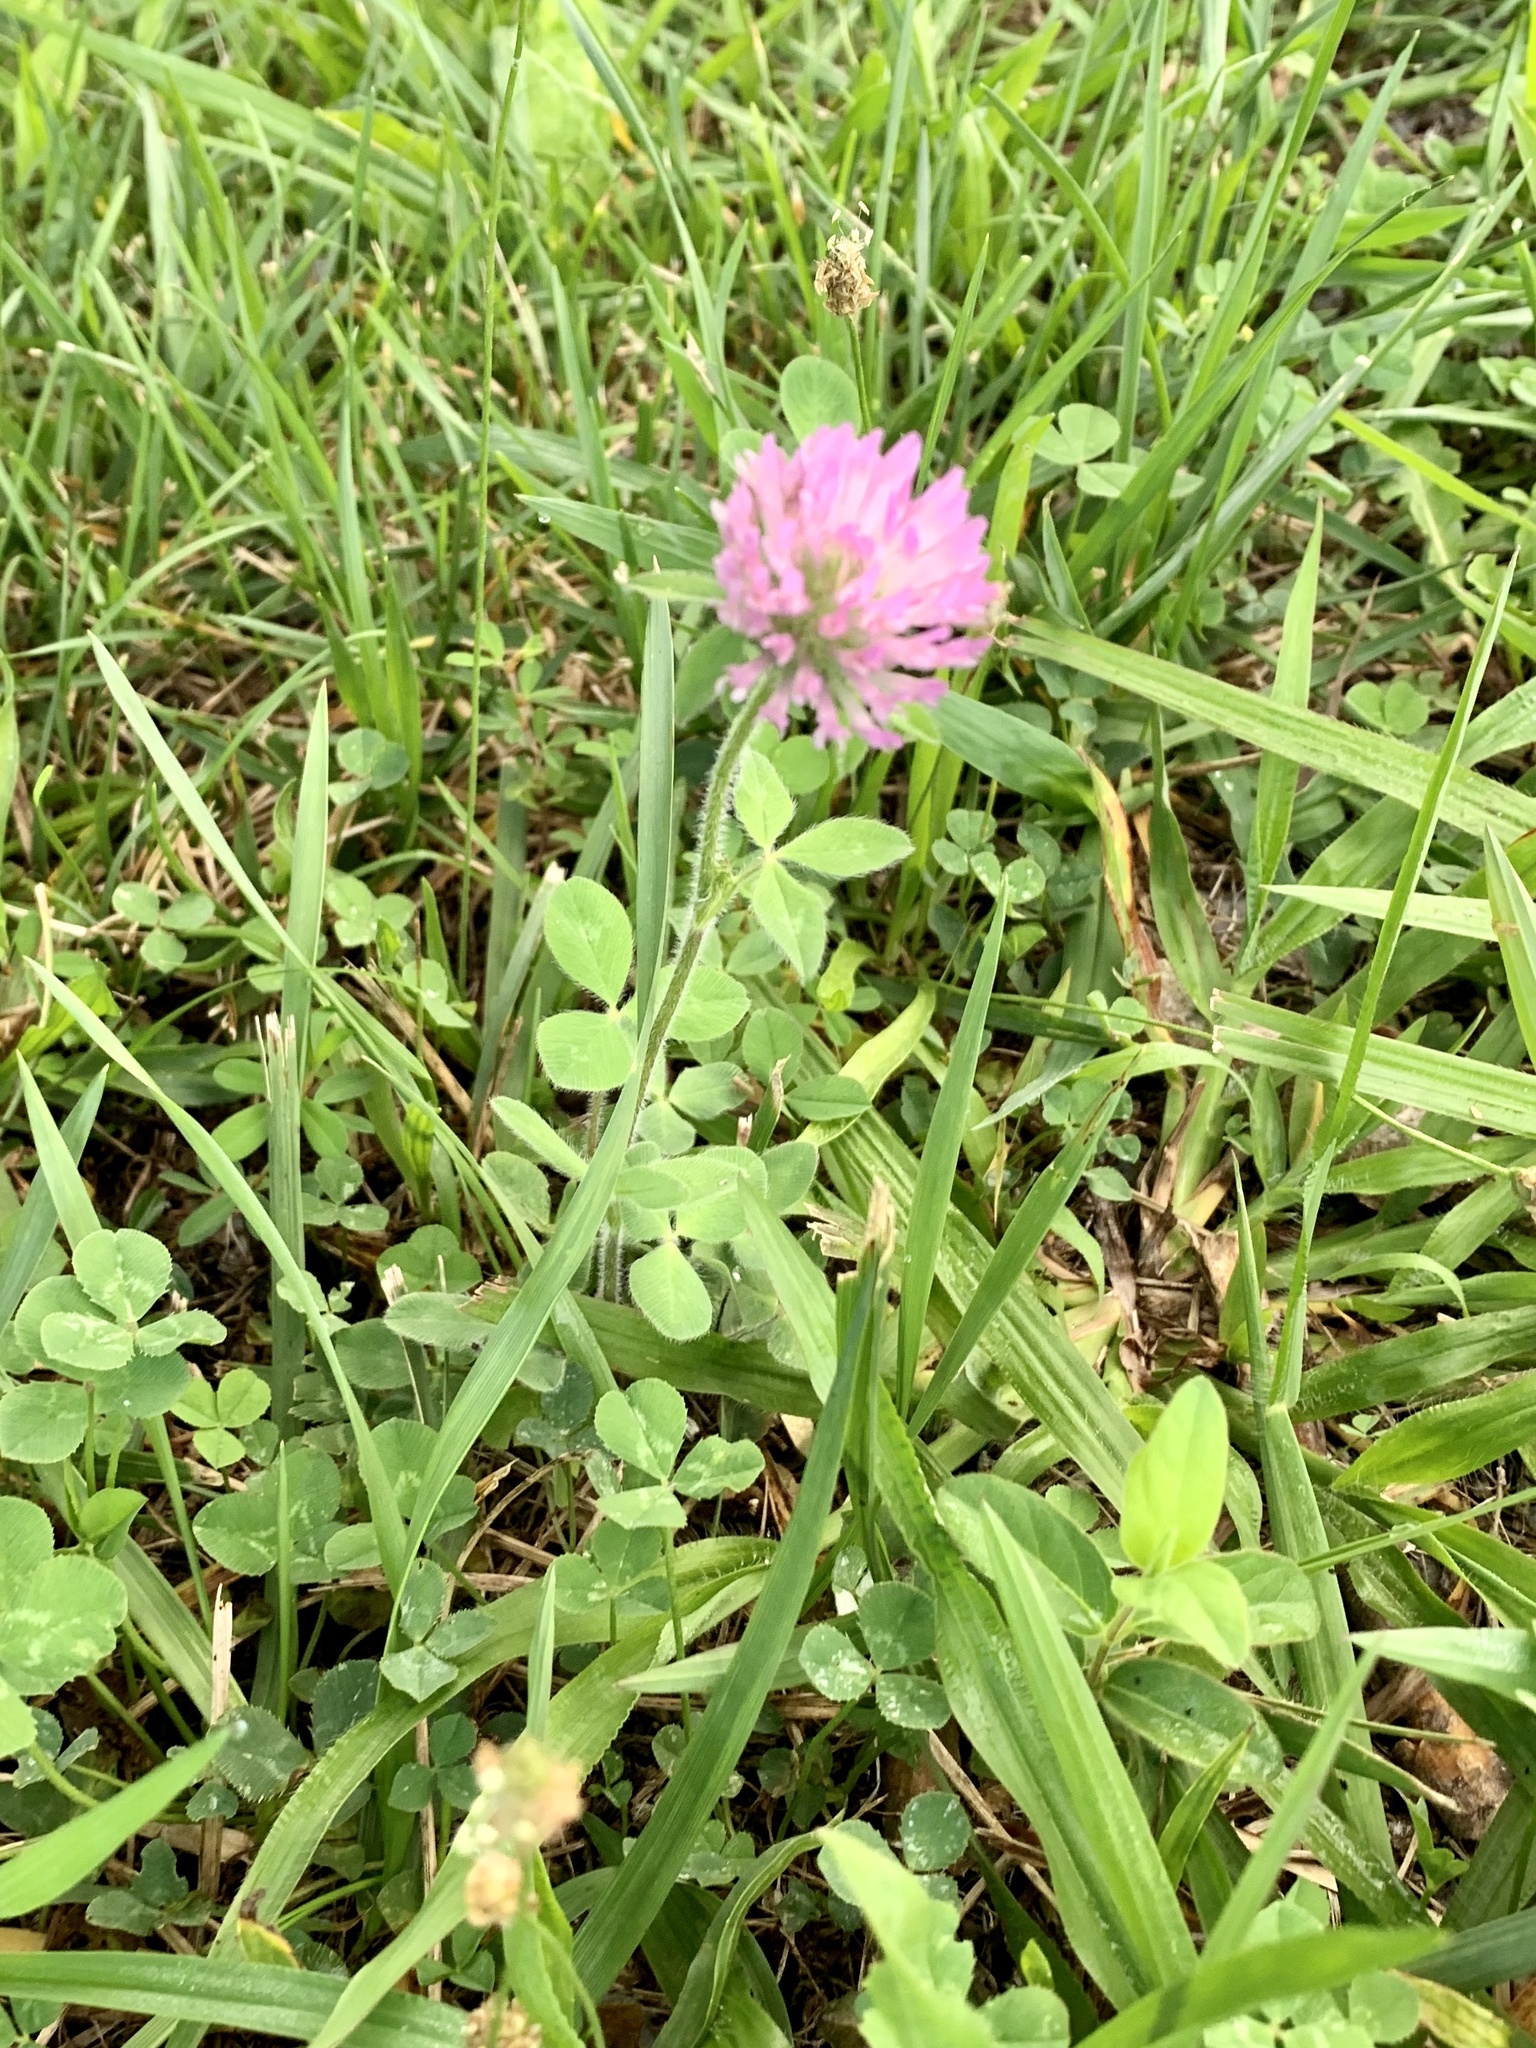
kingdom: Plantae
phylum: Tracheophyta
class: Magnoliopsida
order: Fabales
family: Fabaceae
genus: Trifolium
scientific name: Trifolium pratense
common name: Red clover
